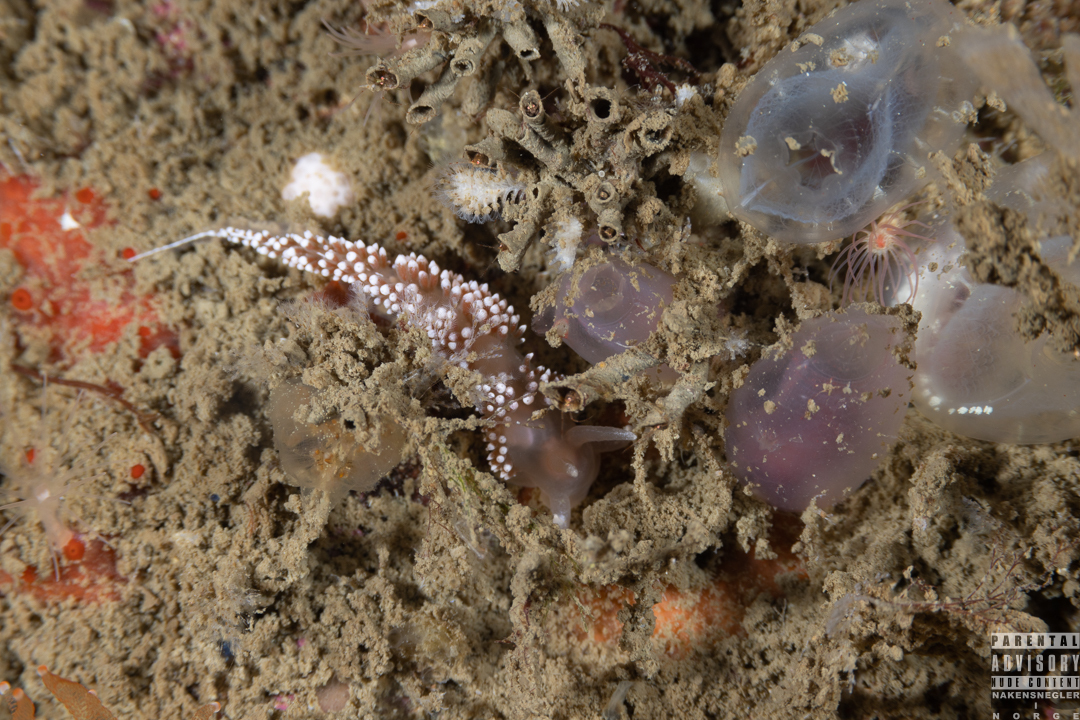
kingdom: Animalia
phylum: Mollusca
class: Gastropoda
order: Nudibranchia
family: Coryphellidae
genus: Coryphella
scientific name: Coryphella verrucosa
